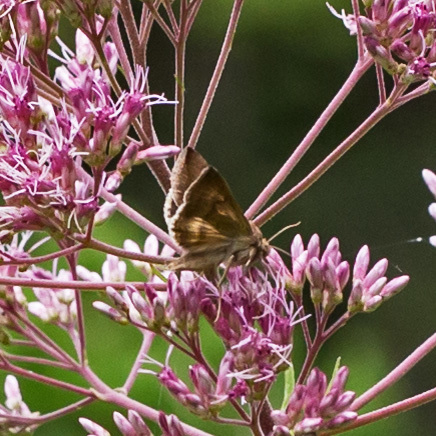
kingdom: Animalia
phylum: Arthropoda
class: Insecta
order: Lepidoptera
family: Noctuidae
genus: Anagrapha
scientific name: Anagrapha falcifera
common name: Celery looper
